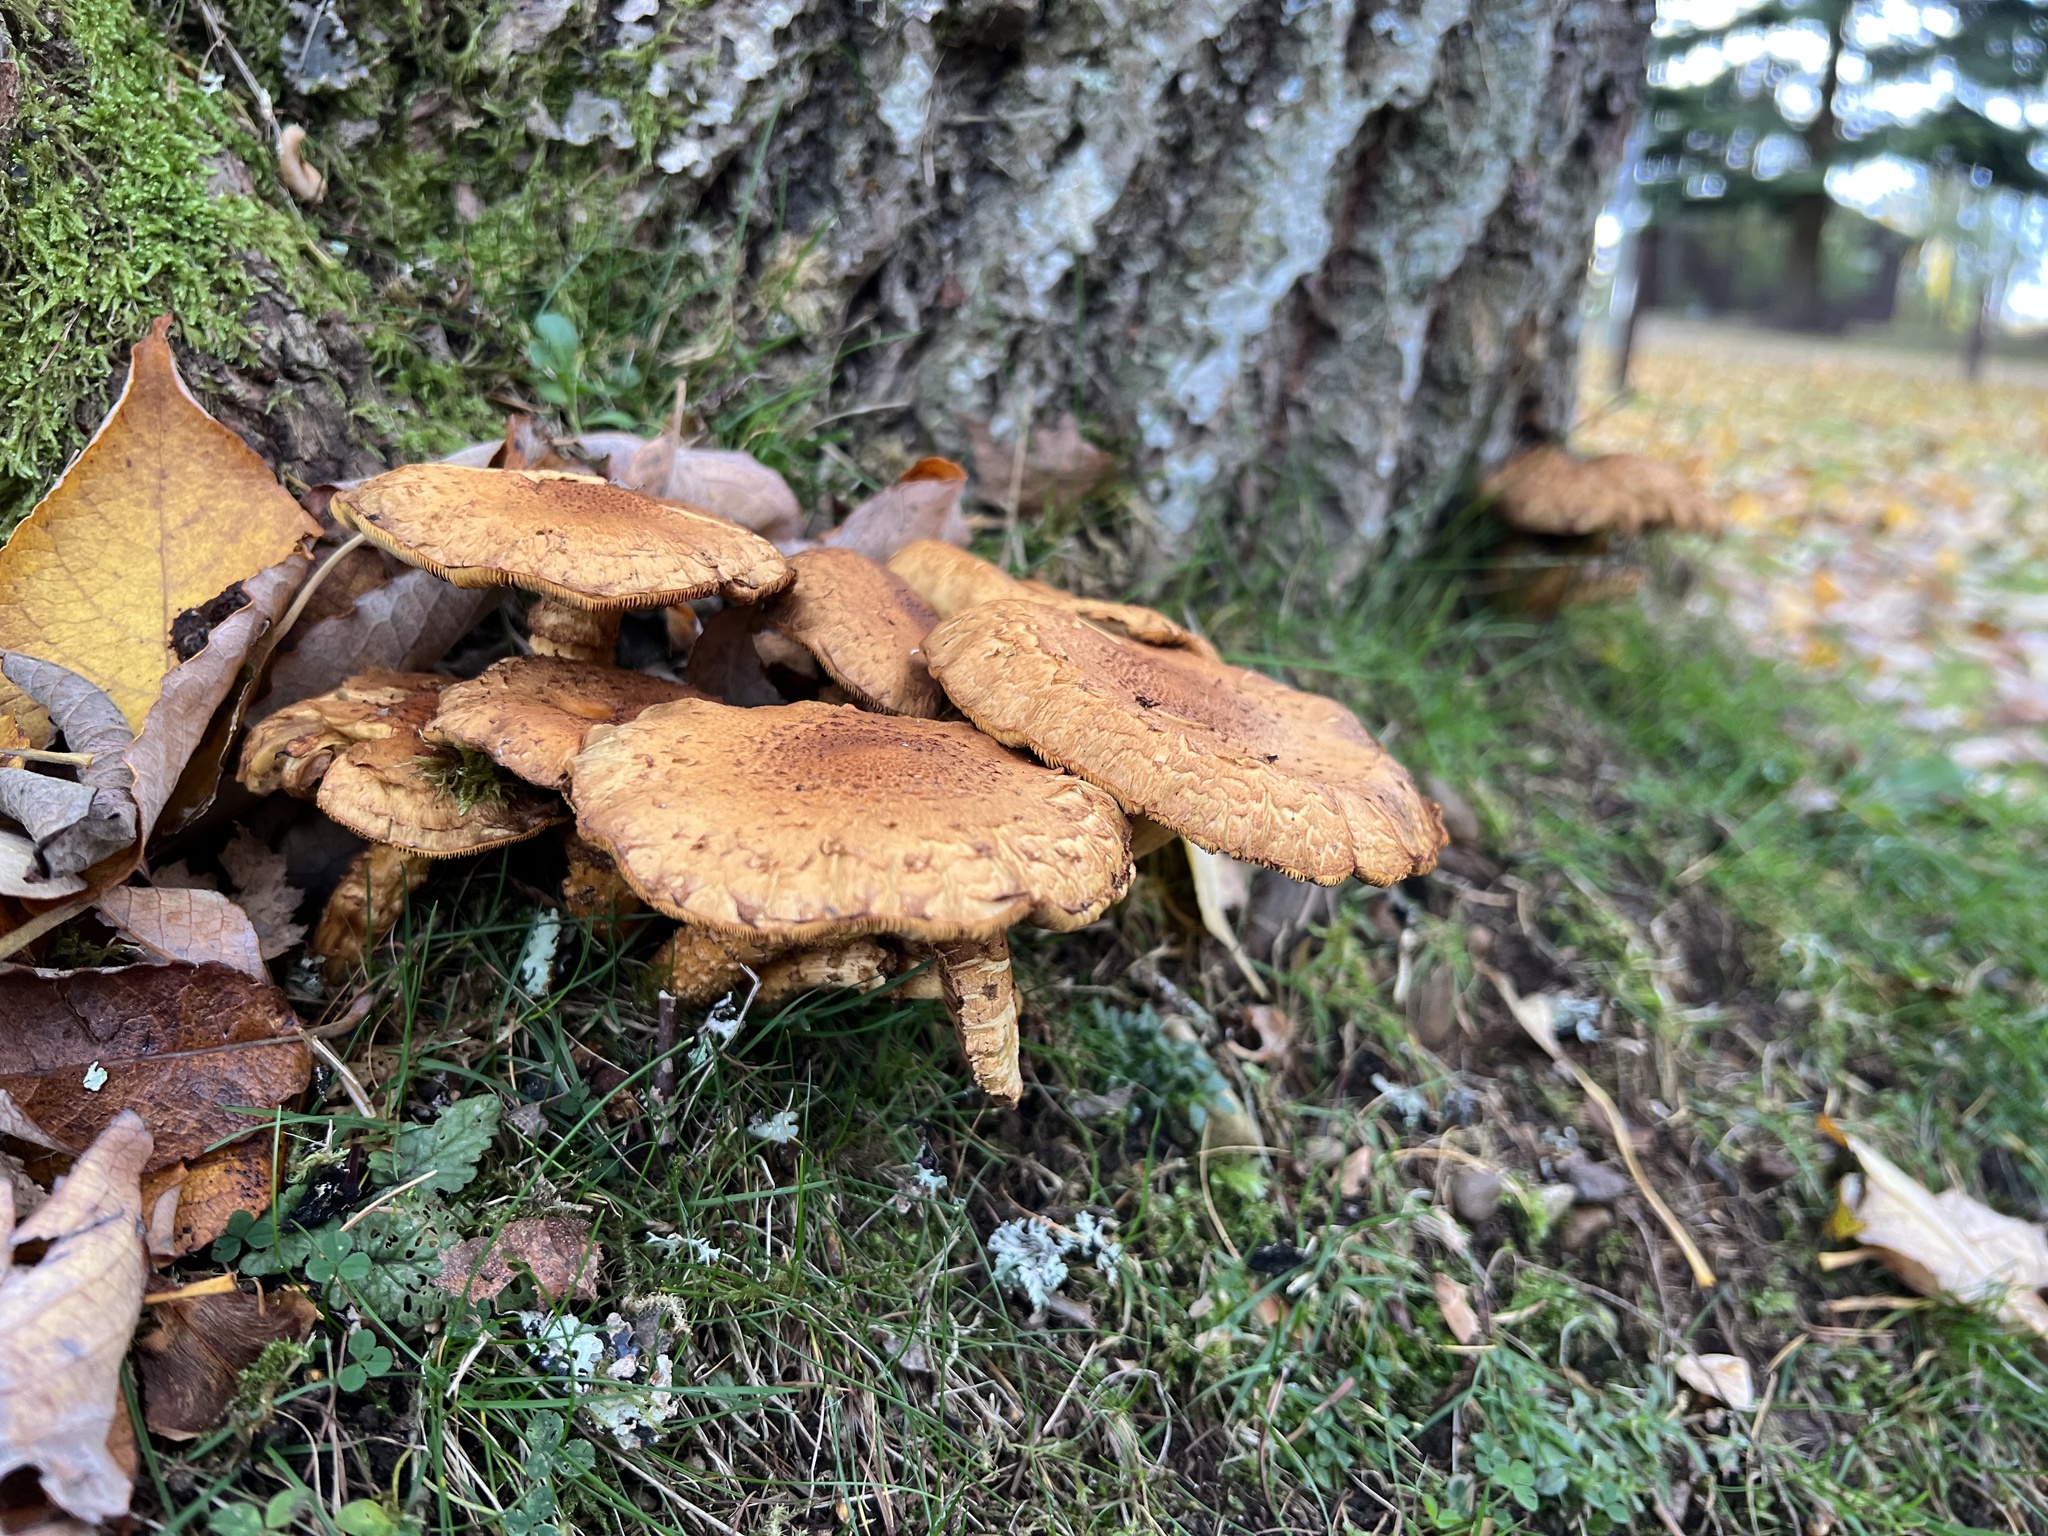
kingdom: Fungi
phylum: Basidiomycota
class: Agaricomycetes
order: Agaricales
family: Strophariaceae
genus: Pholiota
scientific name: Pholiota squarrosa
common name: Shaggy pholiota
